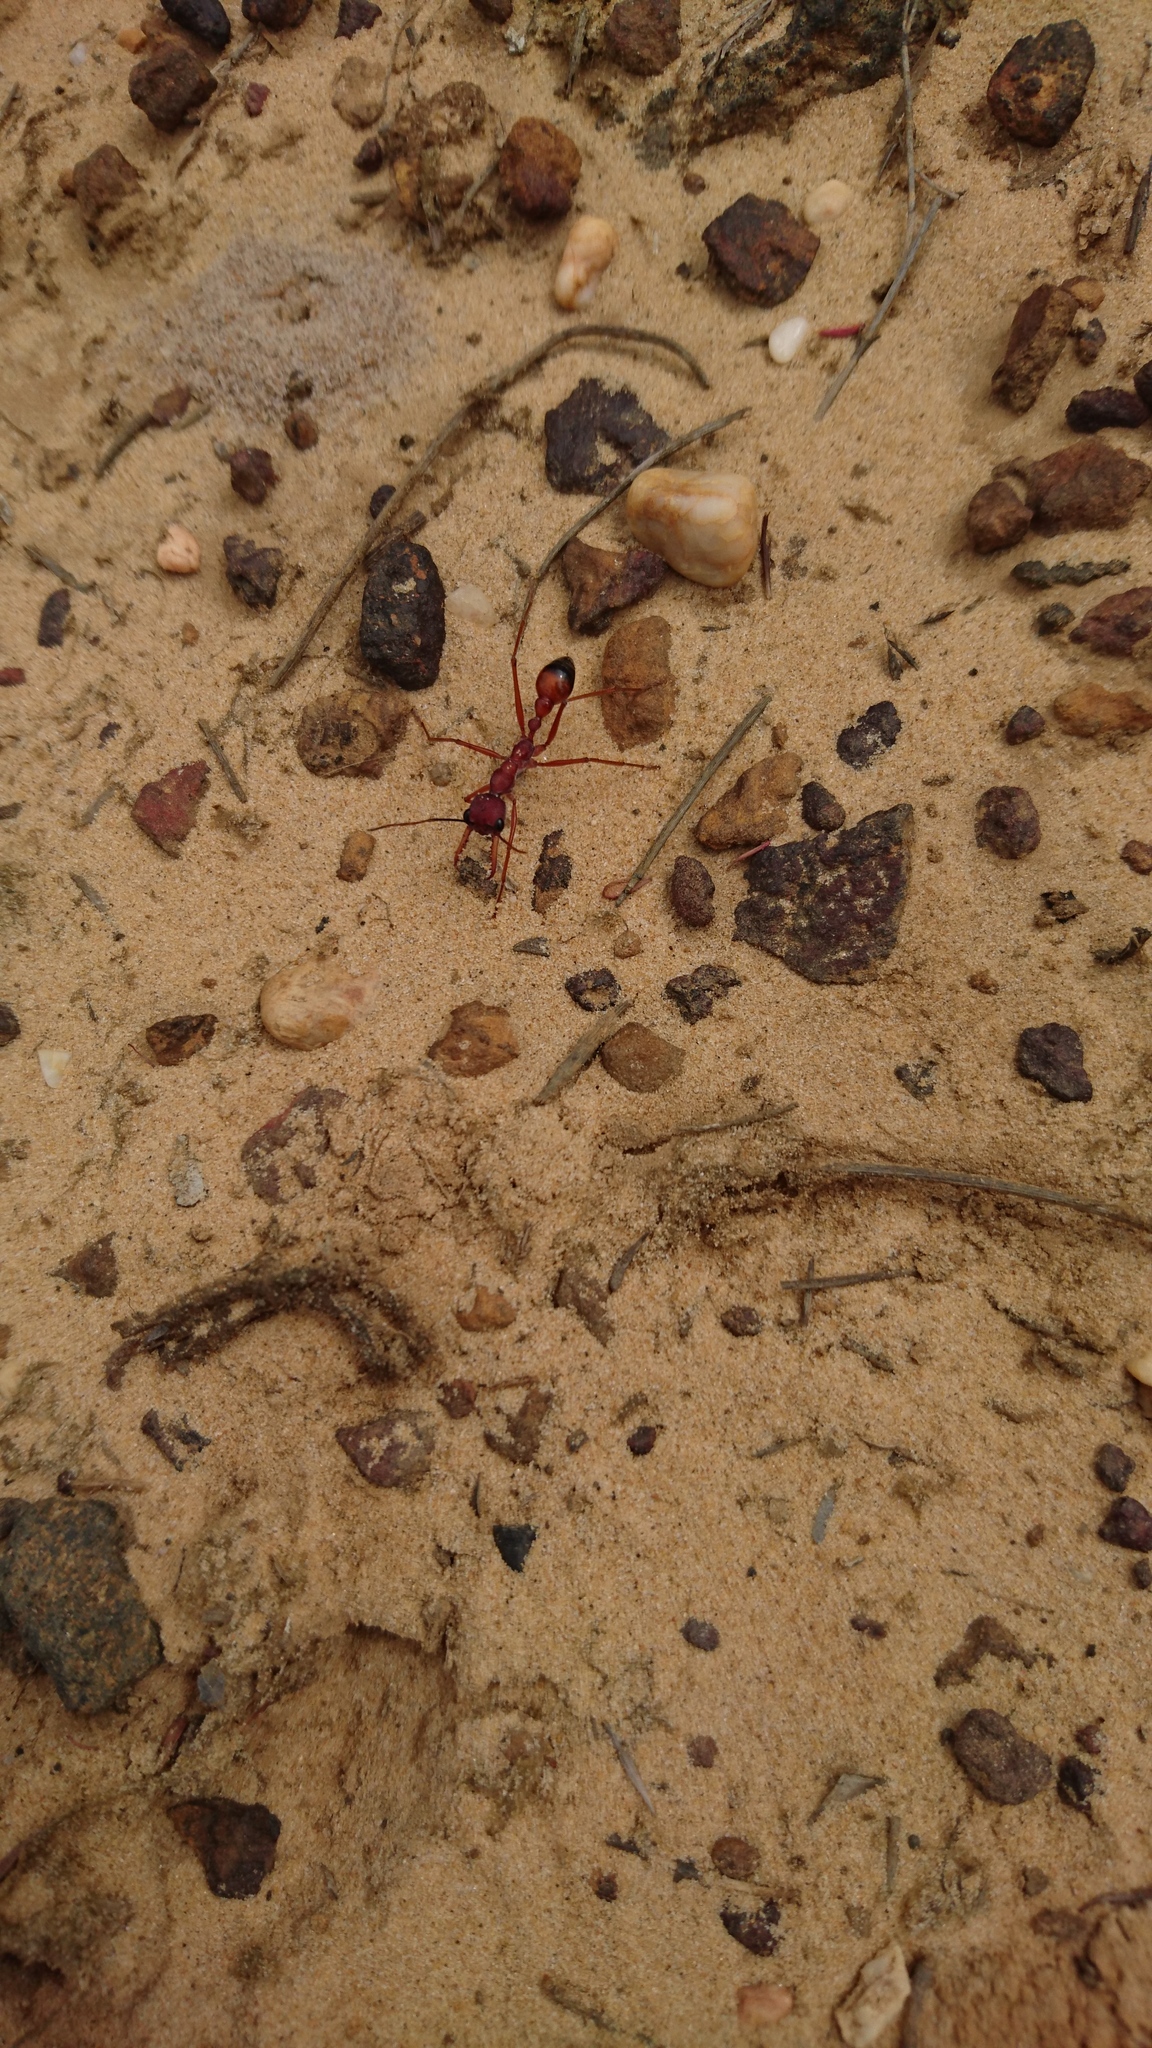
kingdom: Animalia
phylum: Arthropoda
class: Insecta
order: Hymenoptera
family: Formicidae
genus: Myrmecia
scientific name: Myrmecia nigriscapa
